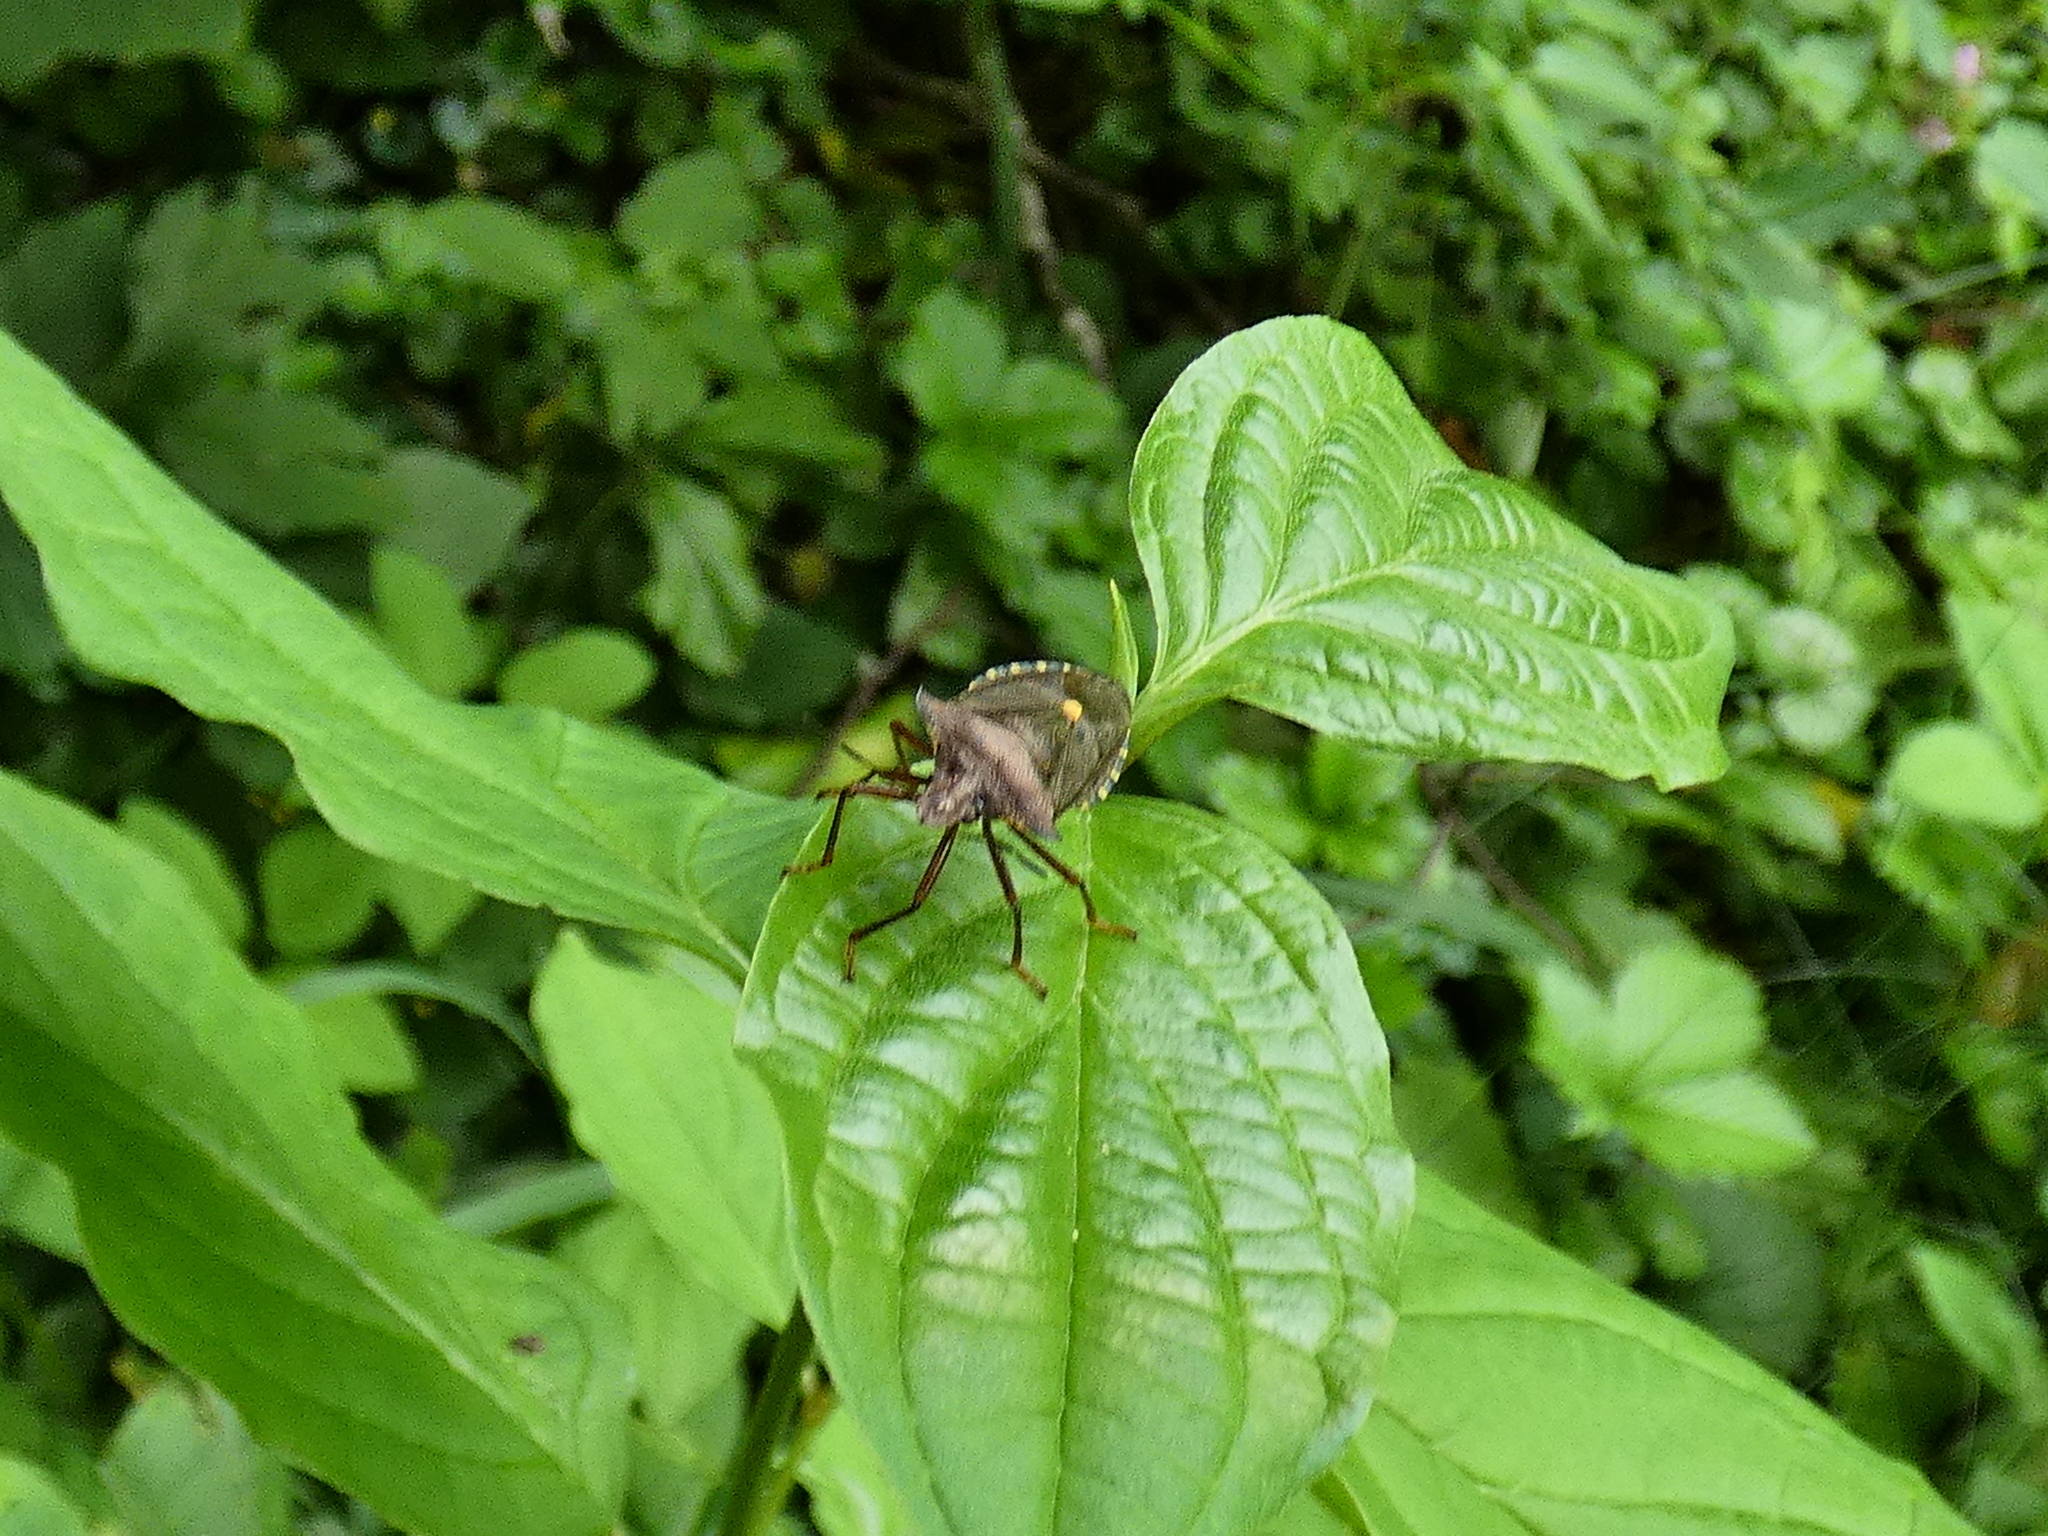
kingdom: Animalia
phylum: Arthropoda
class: Insecta
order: Hemiptera
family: Pentatomidae
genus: Pentatoma
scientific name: Pentatoma rufipes
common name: Forest bug
